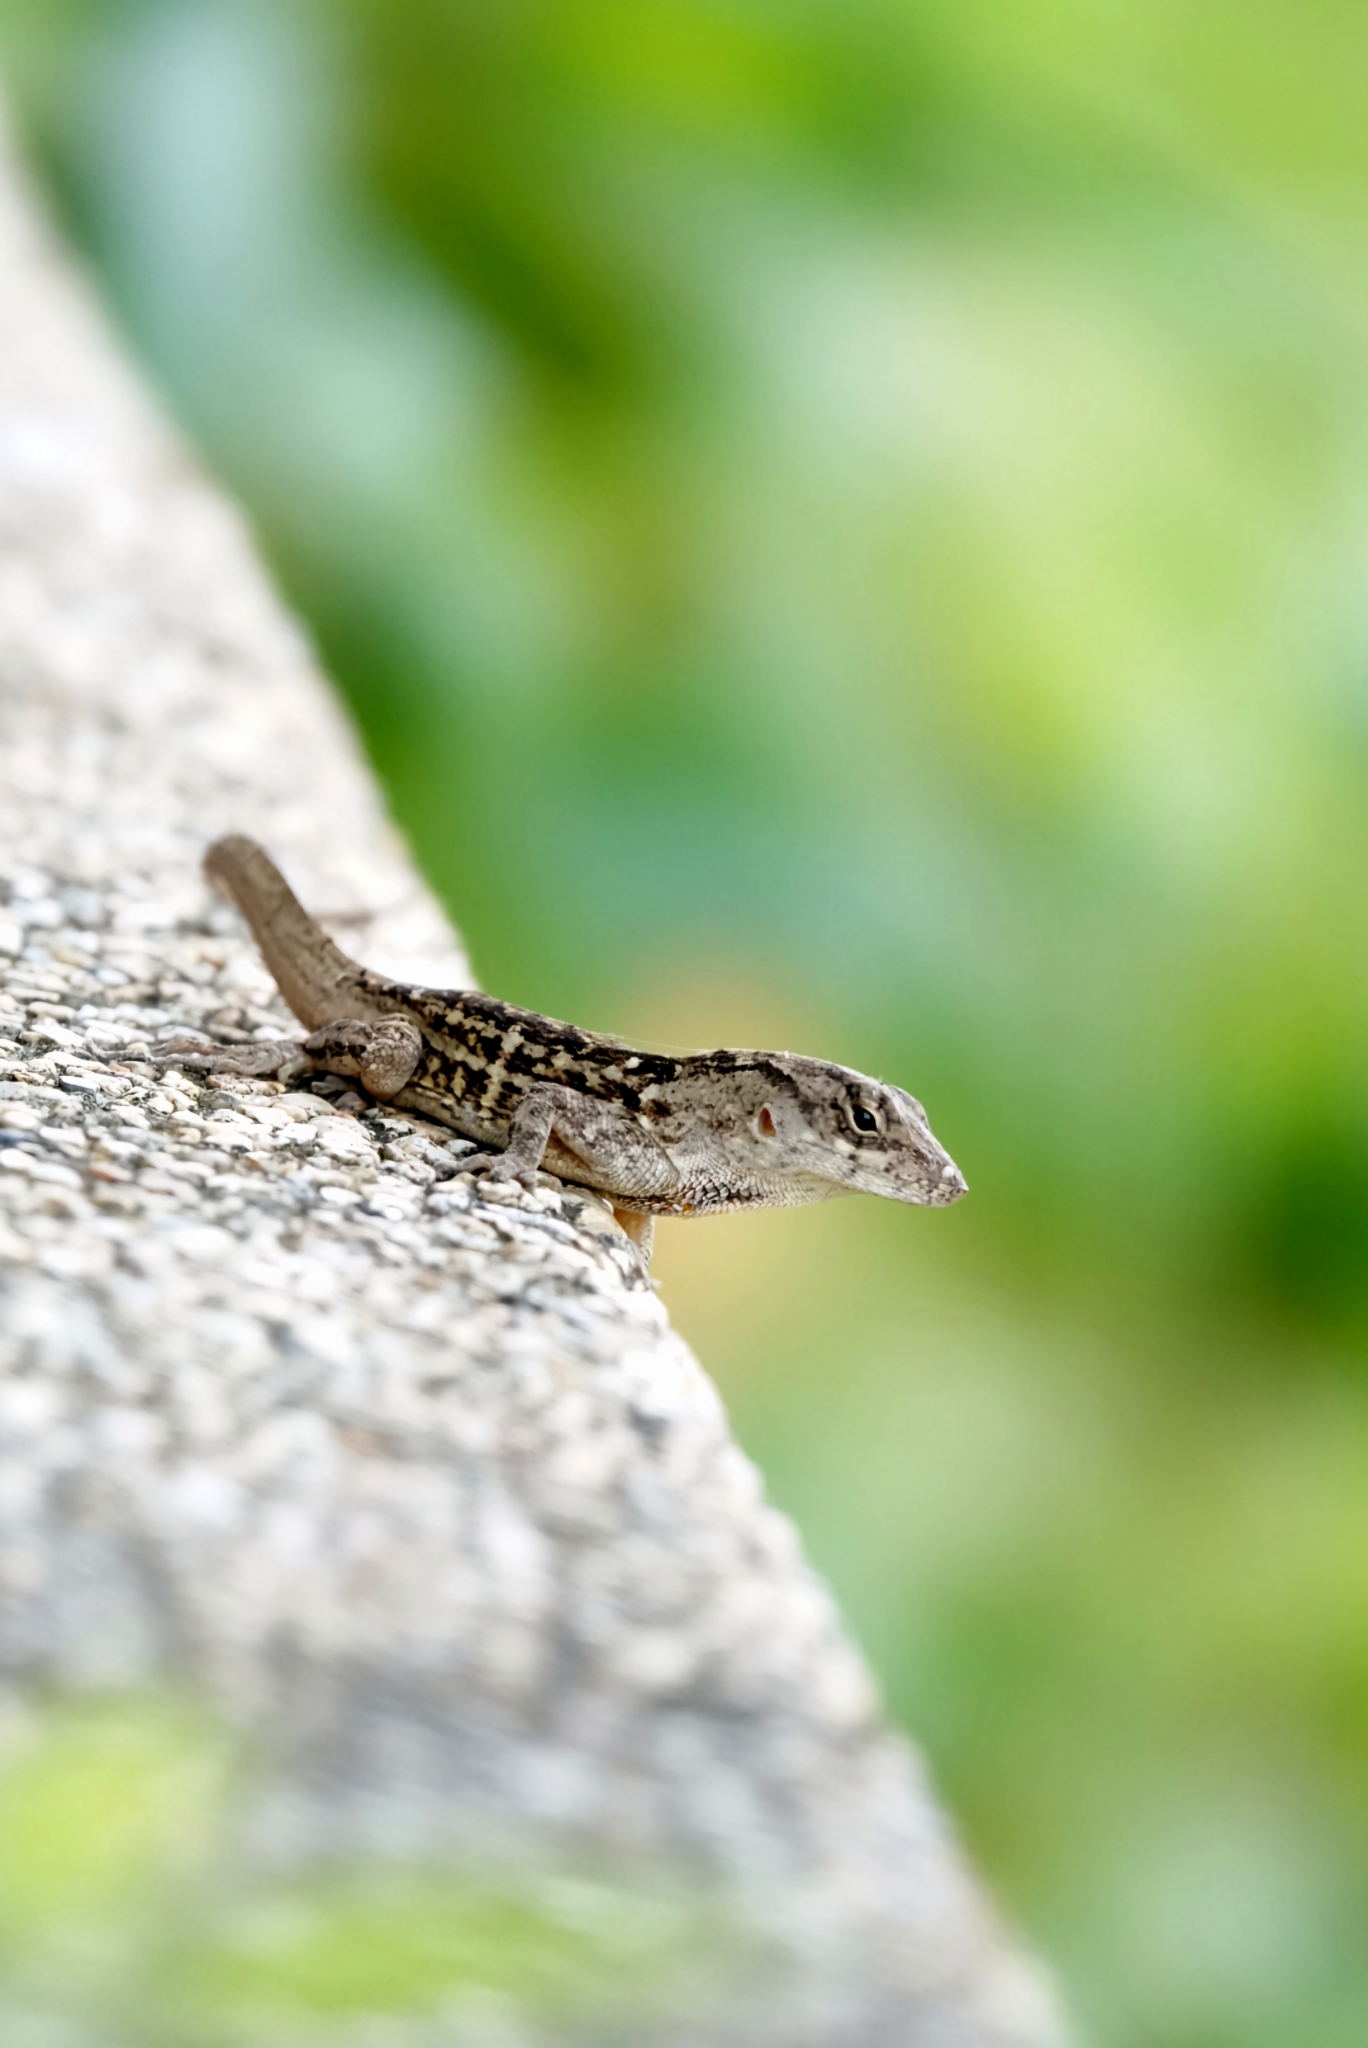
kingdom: Animalia
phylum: Chordata
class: Squamata
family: Dactyloidae
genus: Anolis
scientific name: Anolis sagrei
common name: Brown anole
